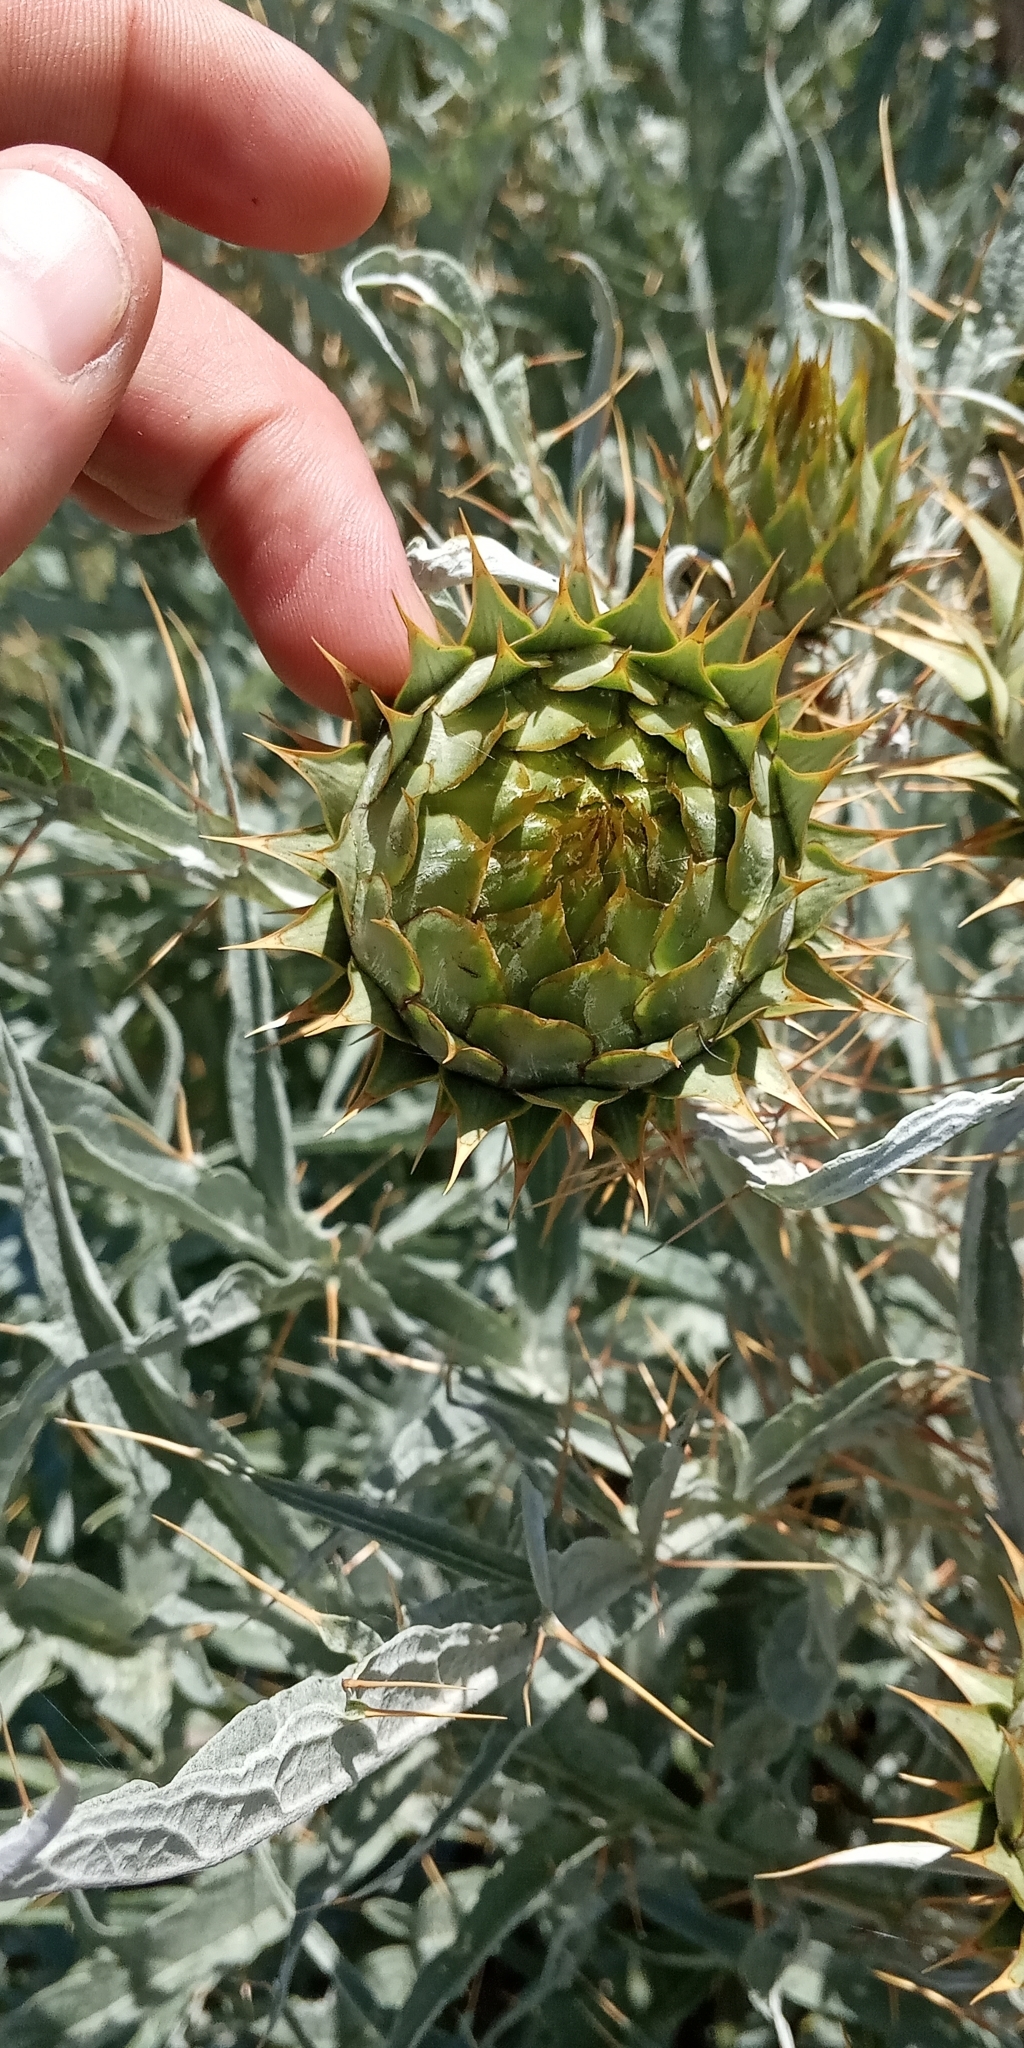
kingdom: Plantae
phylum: Tracheophyta
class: Magnoliopsida
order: Asterales
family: Asteraceae
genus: Cynara
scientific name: Cynara cardunculus
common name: Globe artichoke
